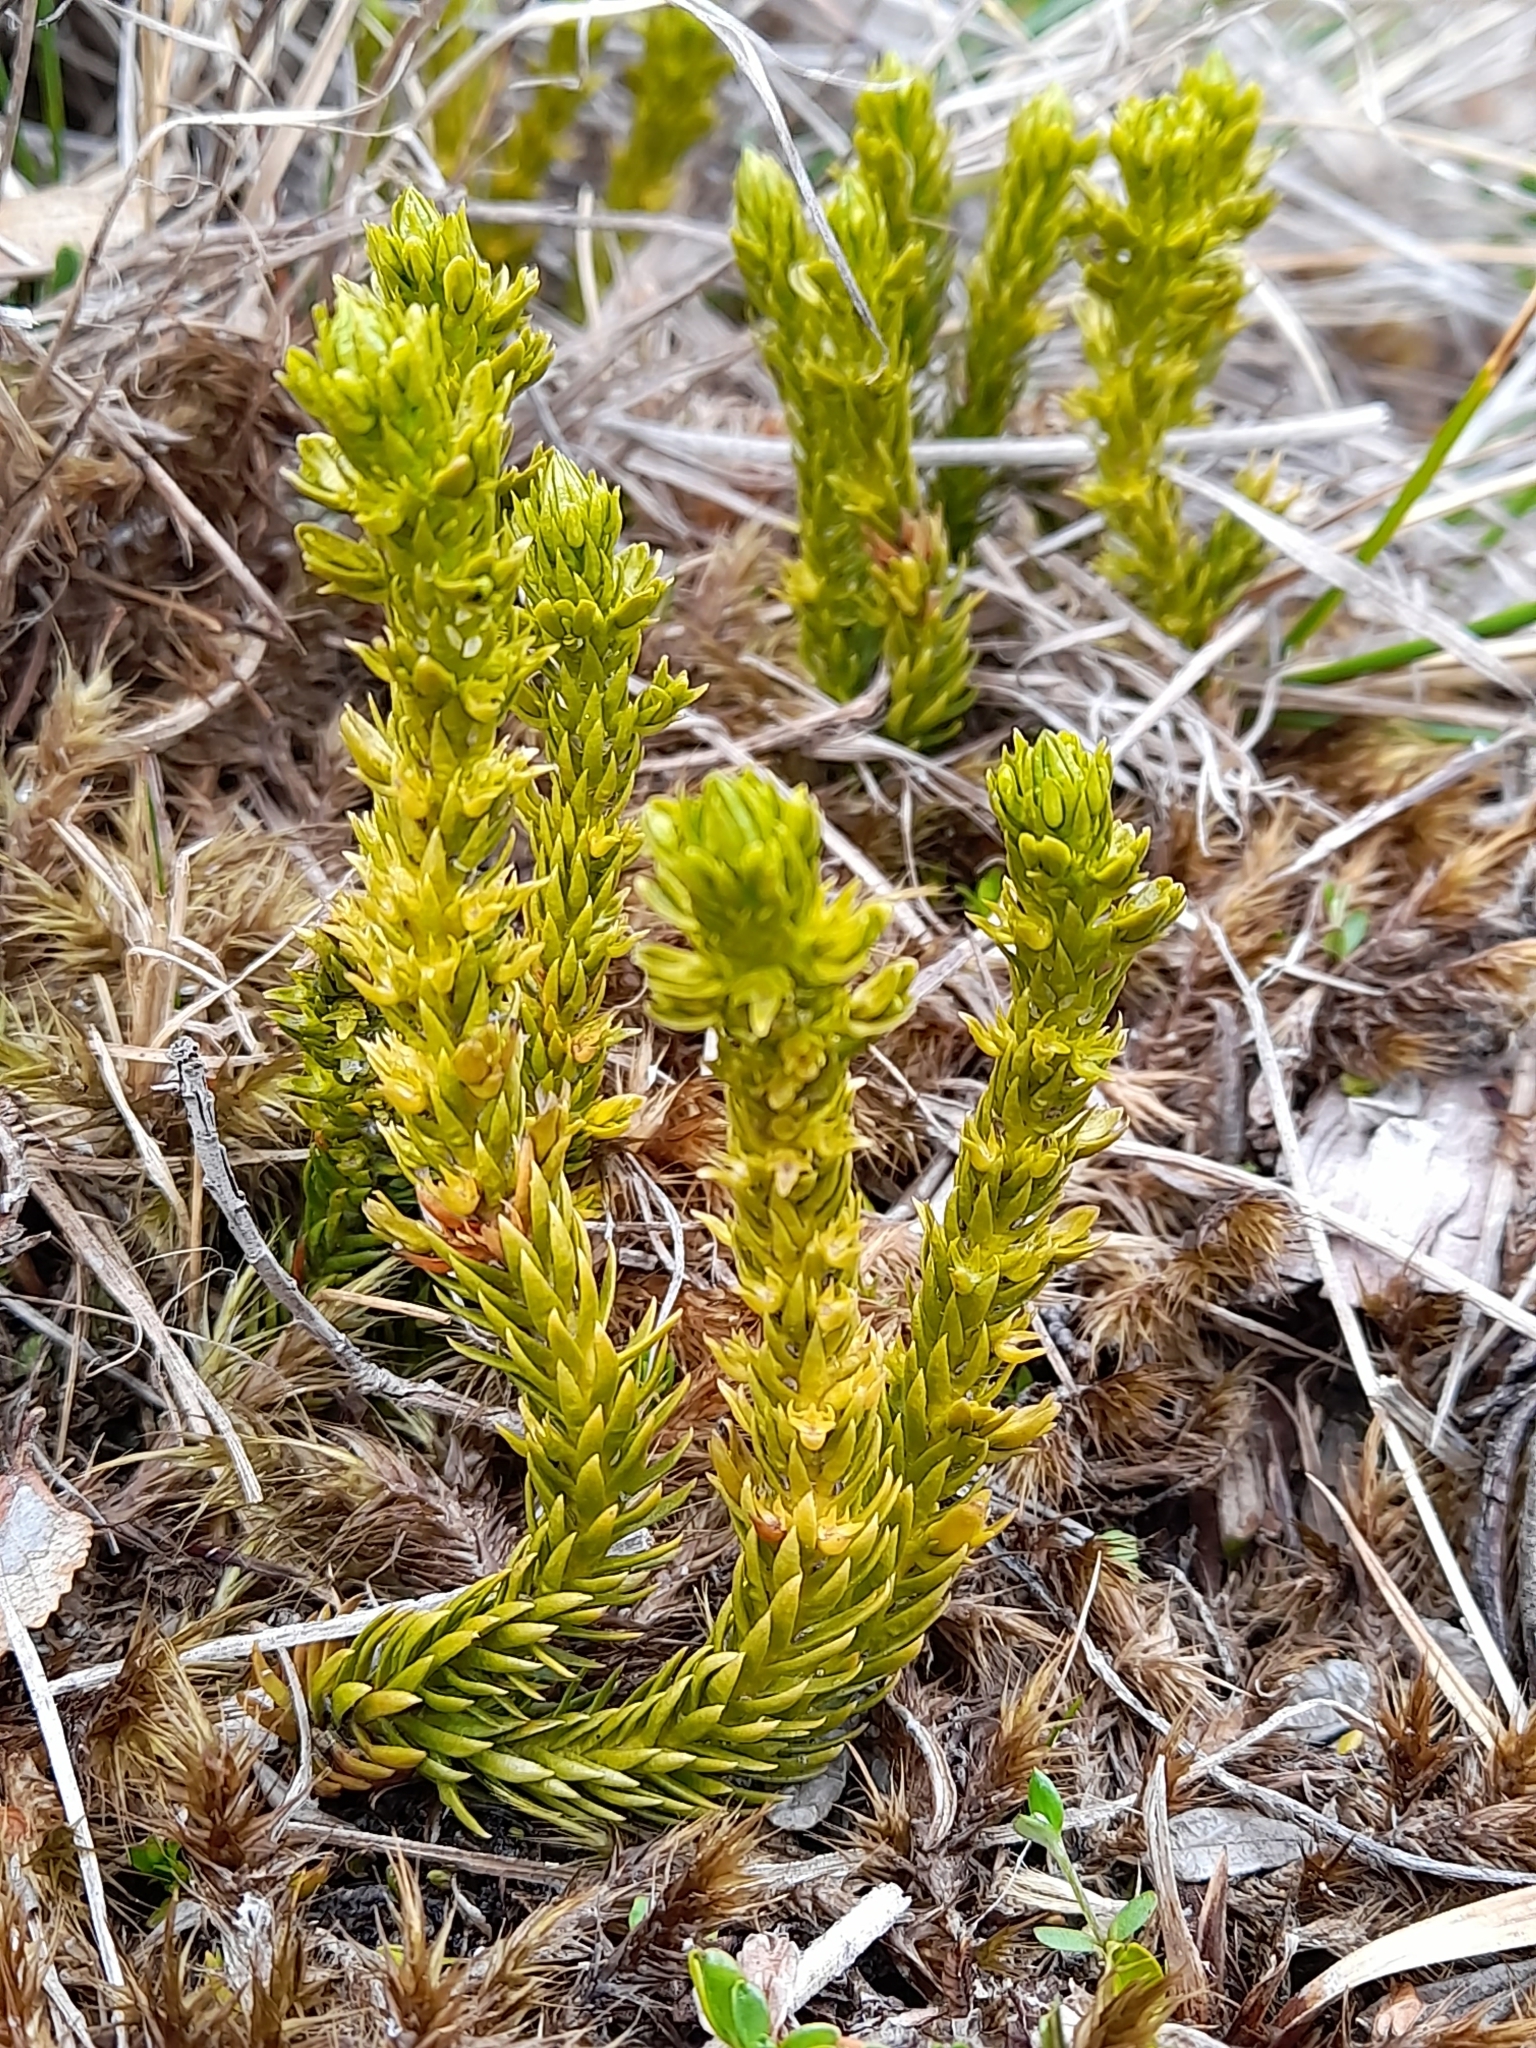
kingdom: Plantae
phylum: Tracheophyta
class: Lycopodiopsida
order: Lycopodiales
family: Lycopodiaceae
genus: Huperzia
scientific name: Huperzia fuegiana
